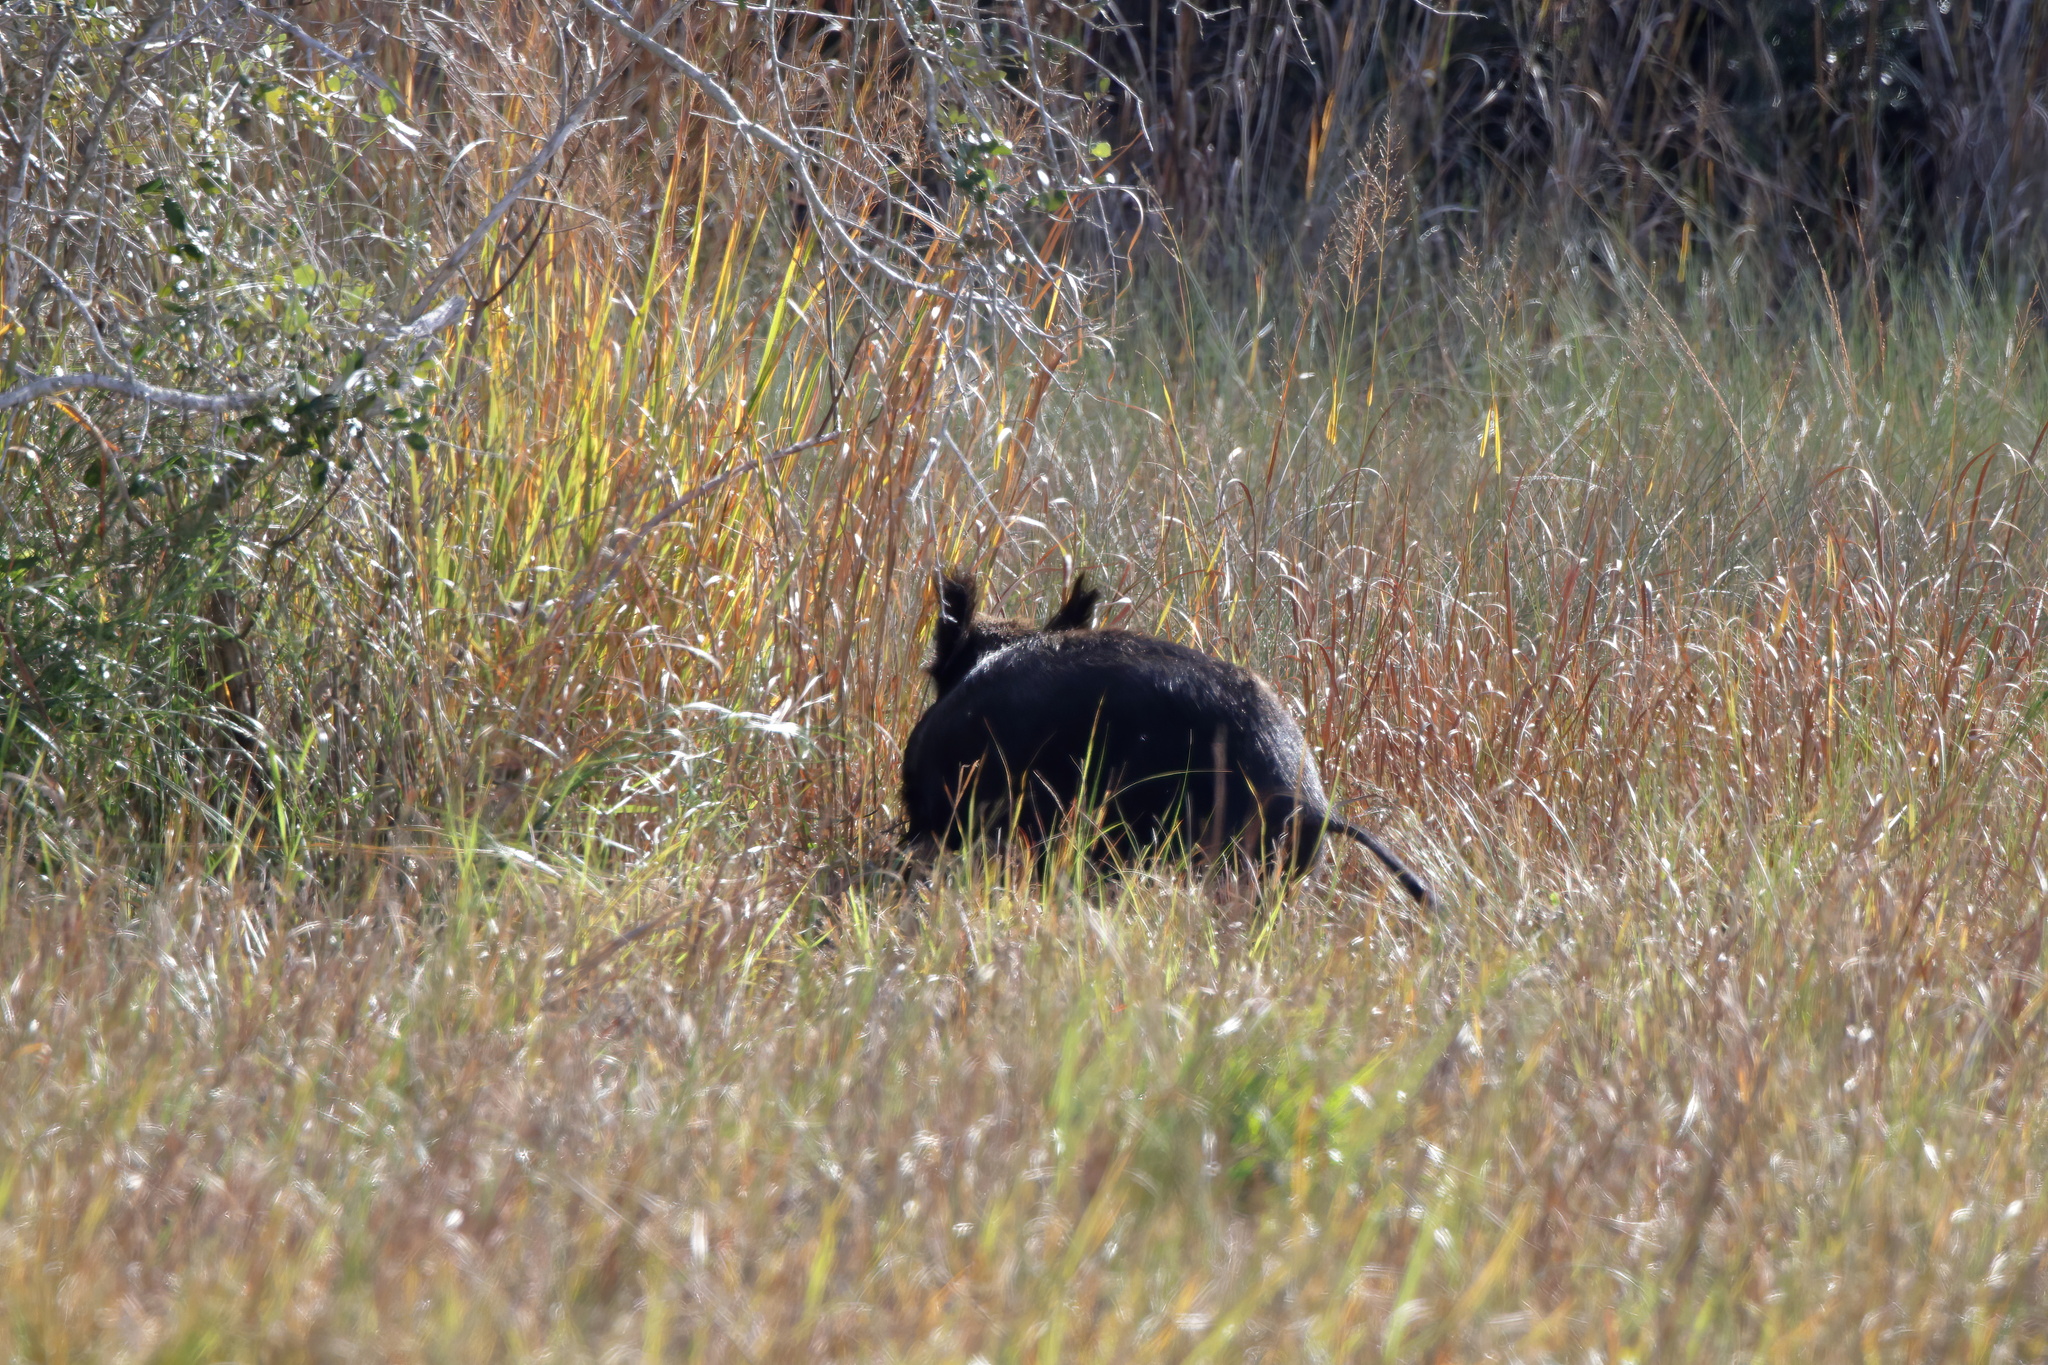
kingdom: Animalia
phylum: Chordata
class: Mammalia
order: Artiodactyla
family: Suidae
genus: Sus
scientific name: Sus scrofa
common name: Wild boar
